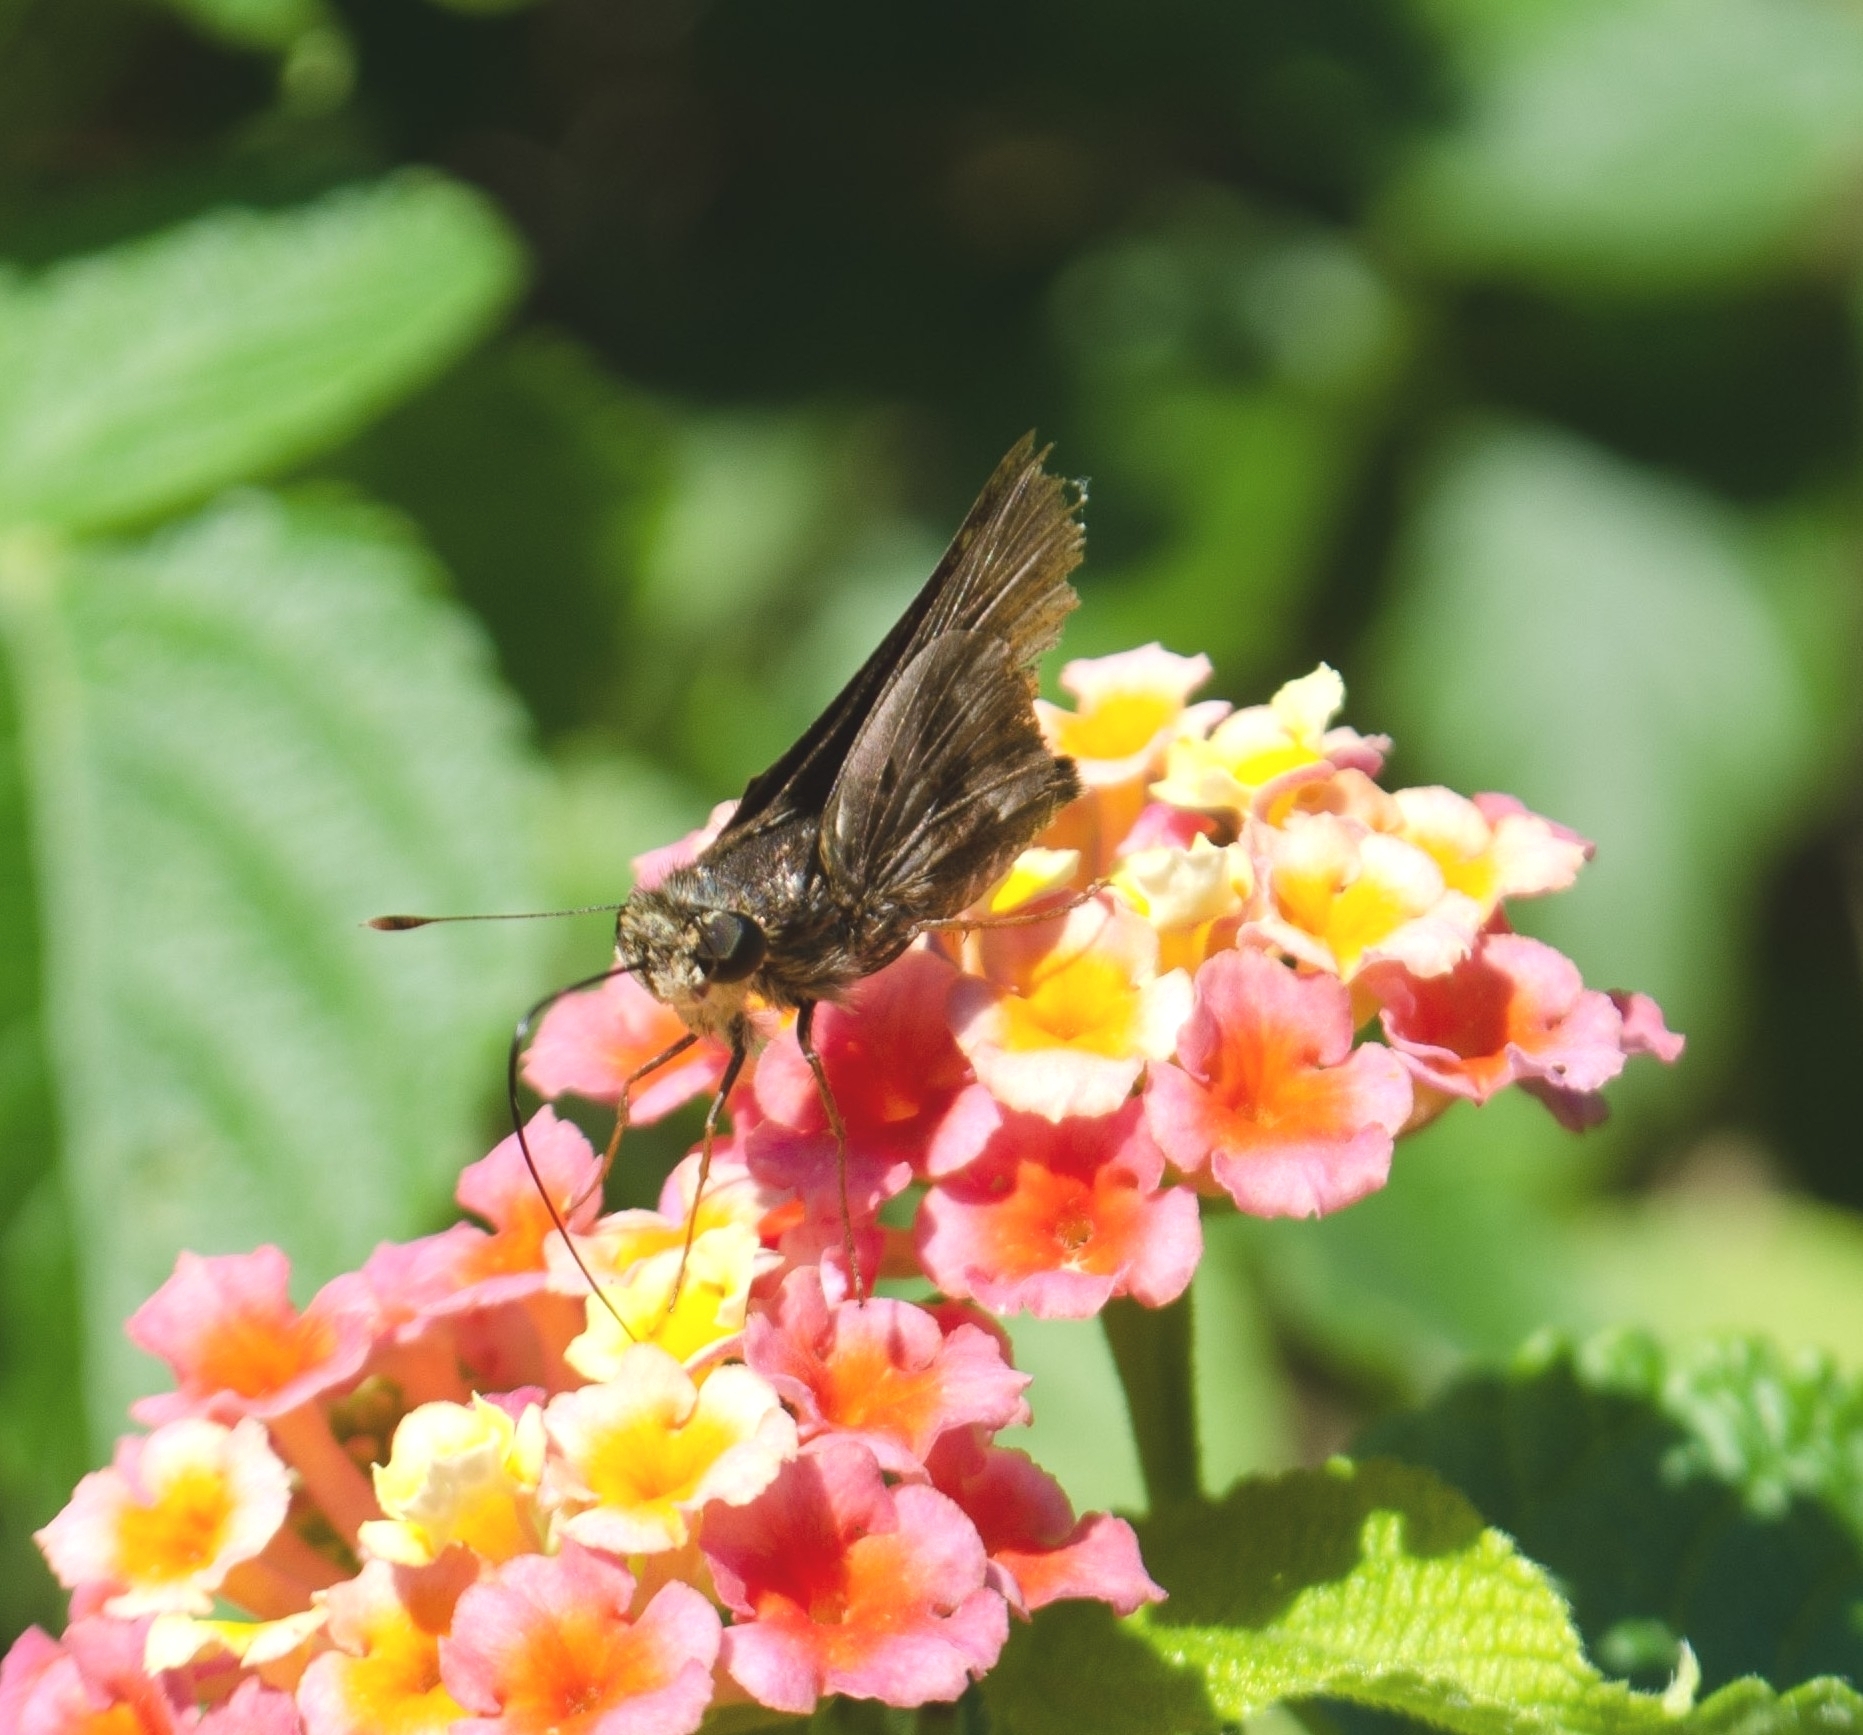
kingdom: Animalia
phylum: Arthropoda
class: Insecta
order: Lepidoptera
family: Hesperiidae
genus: Nyctelius
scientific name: Nyctelius nyctelius
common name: Violet-banded skipper
